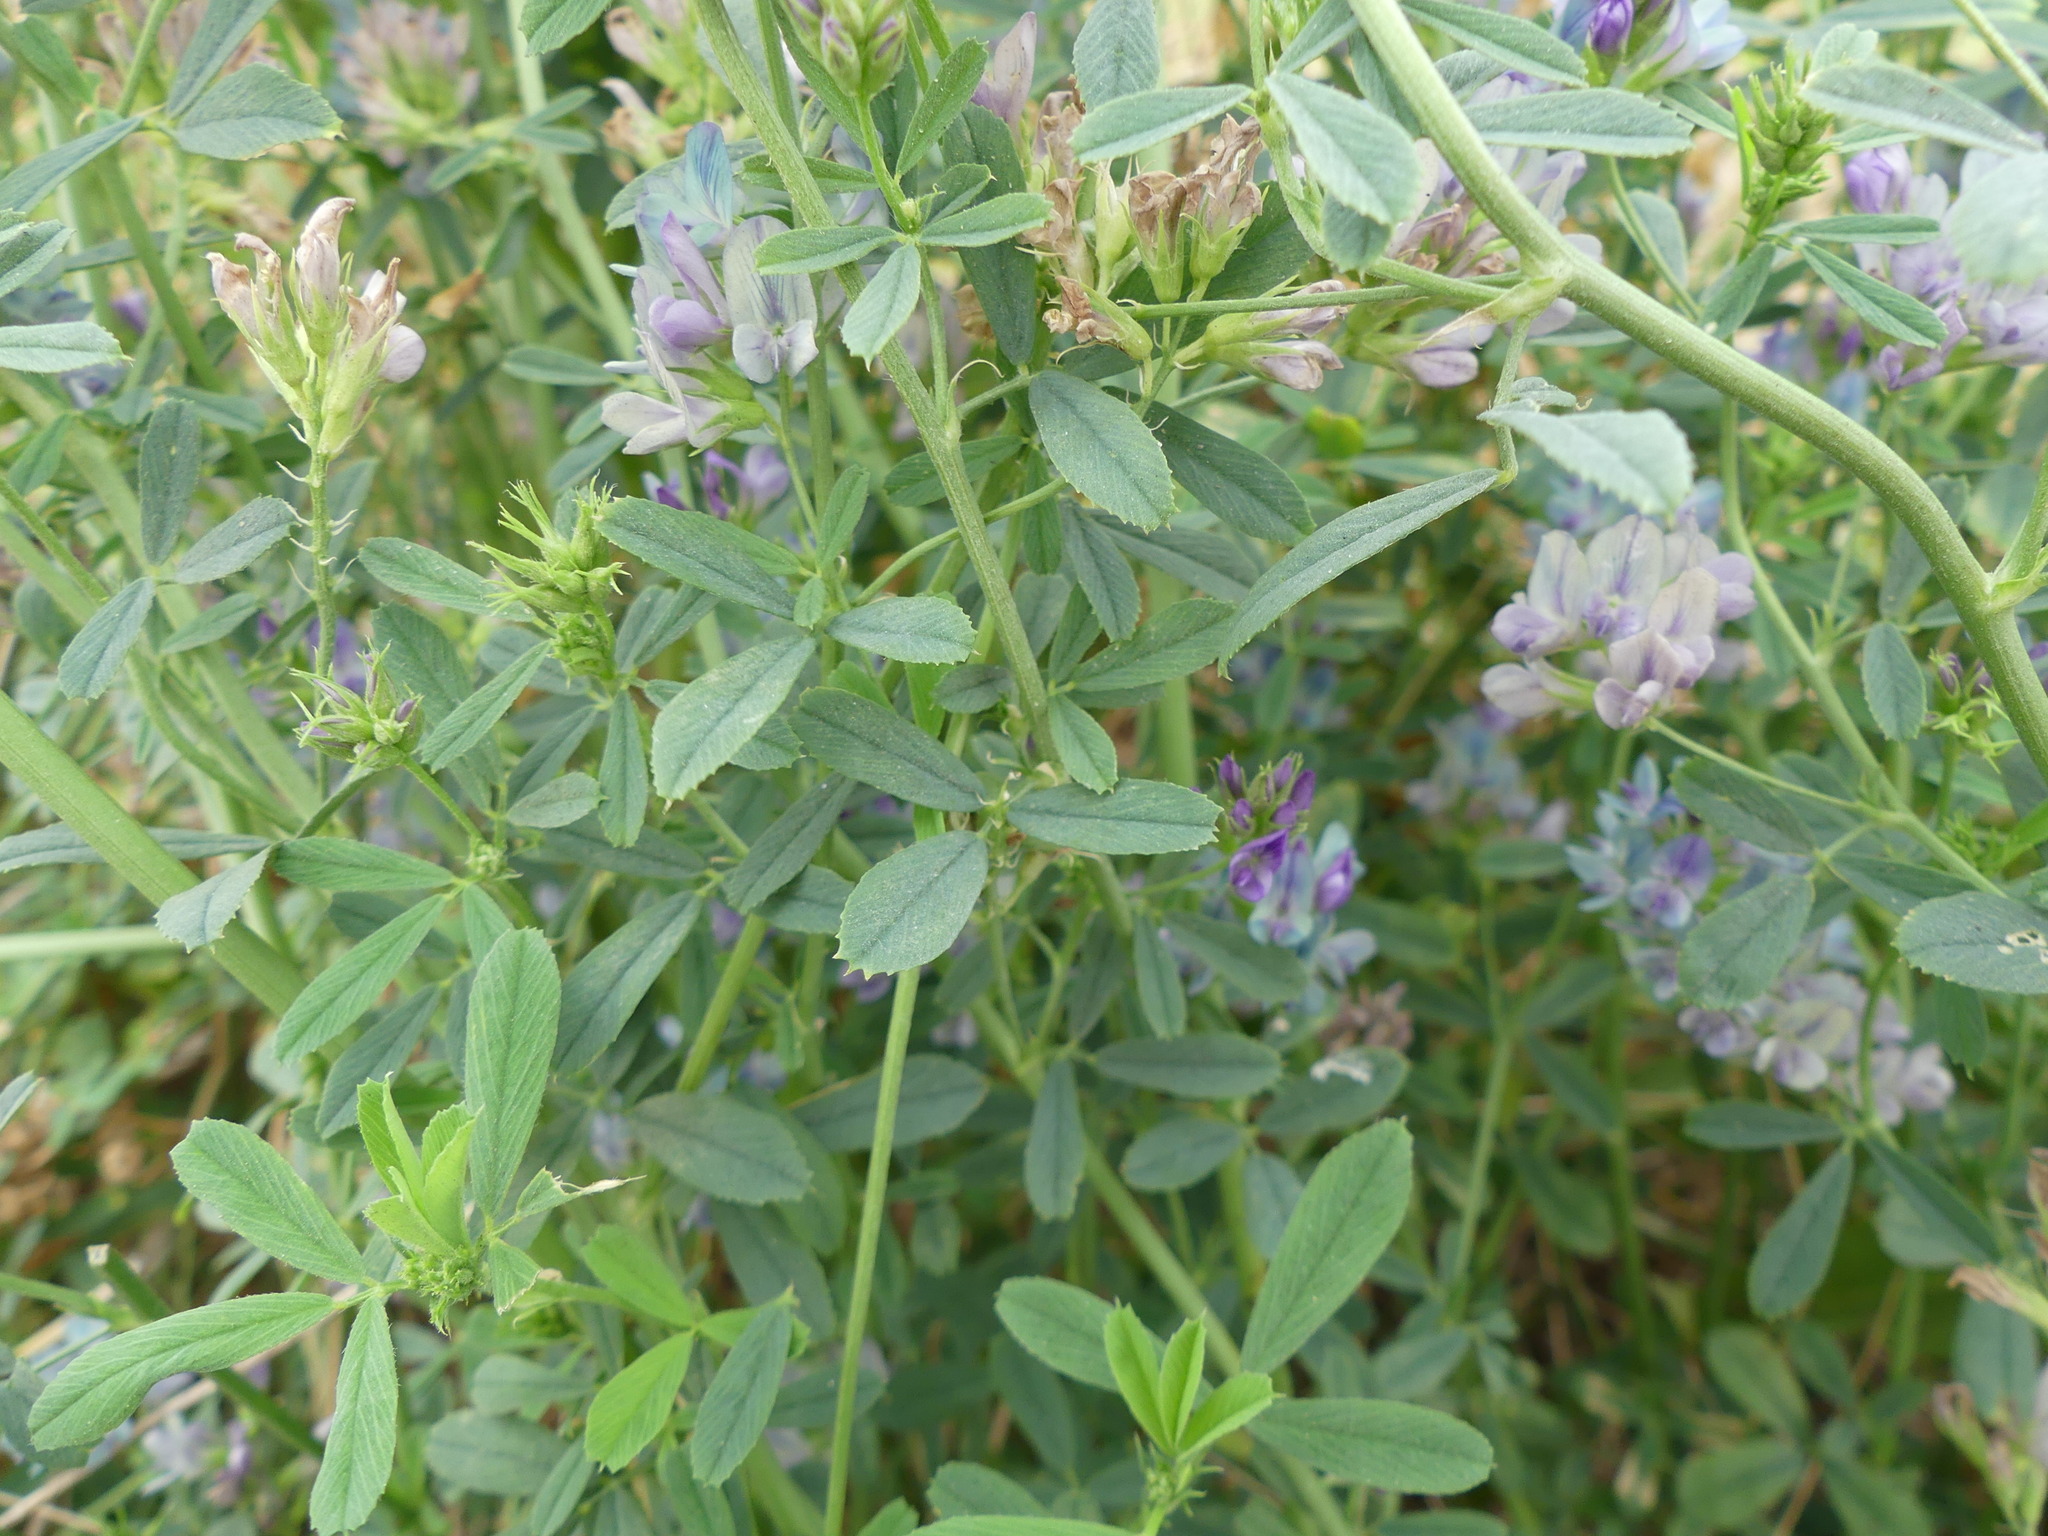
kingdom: Plantae
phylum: Tracheophyta
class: Magnoliopsida
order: Fabales
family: Fabaceae
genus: Medicago
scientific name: Medicago varia
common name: Sand lucerne
